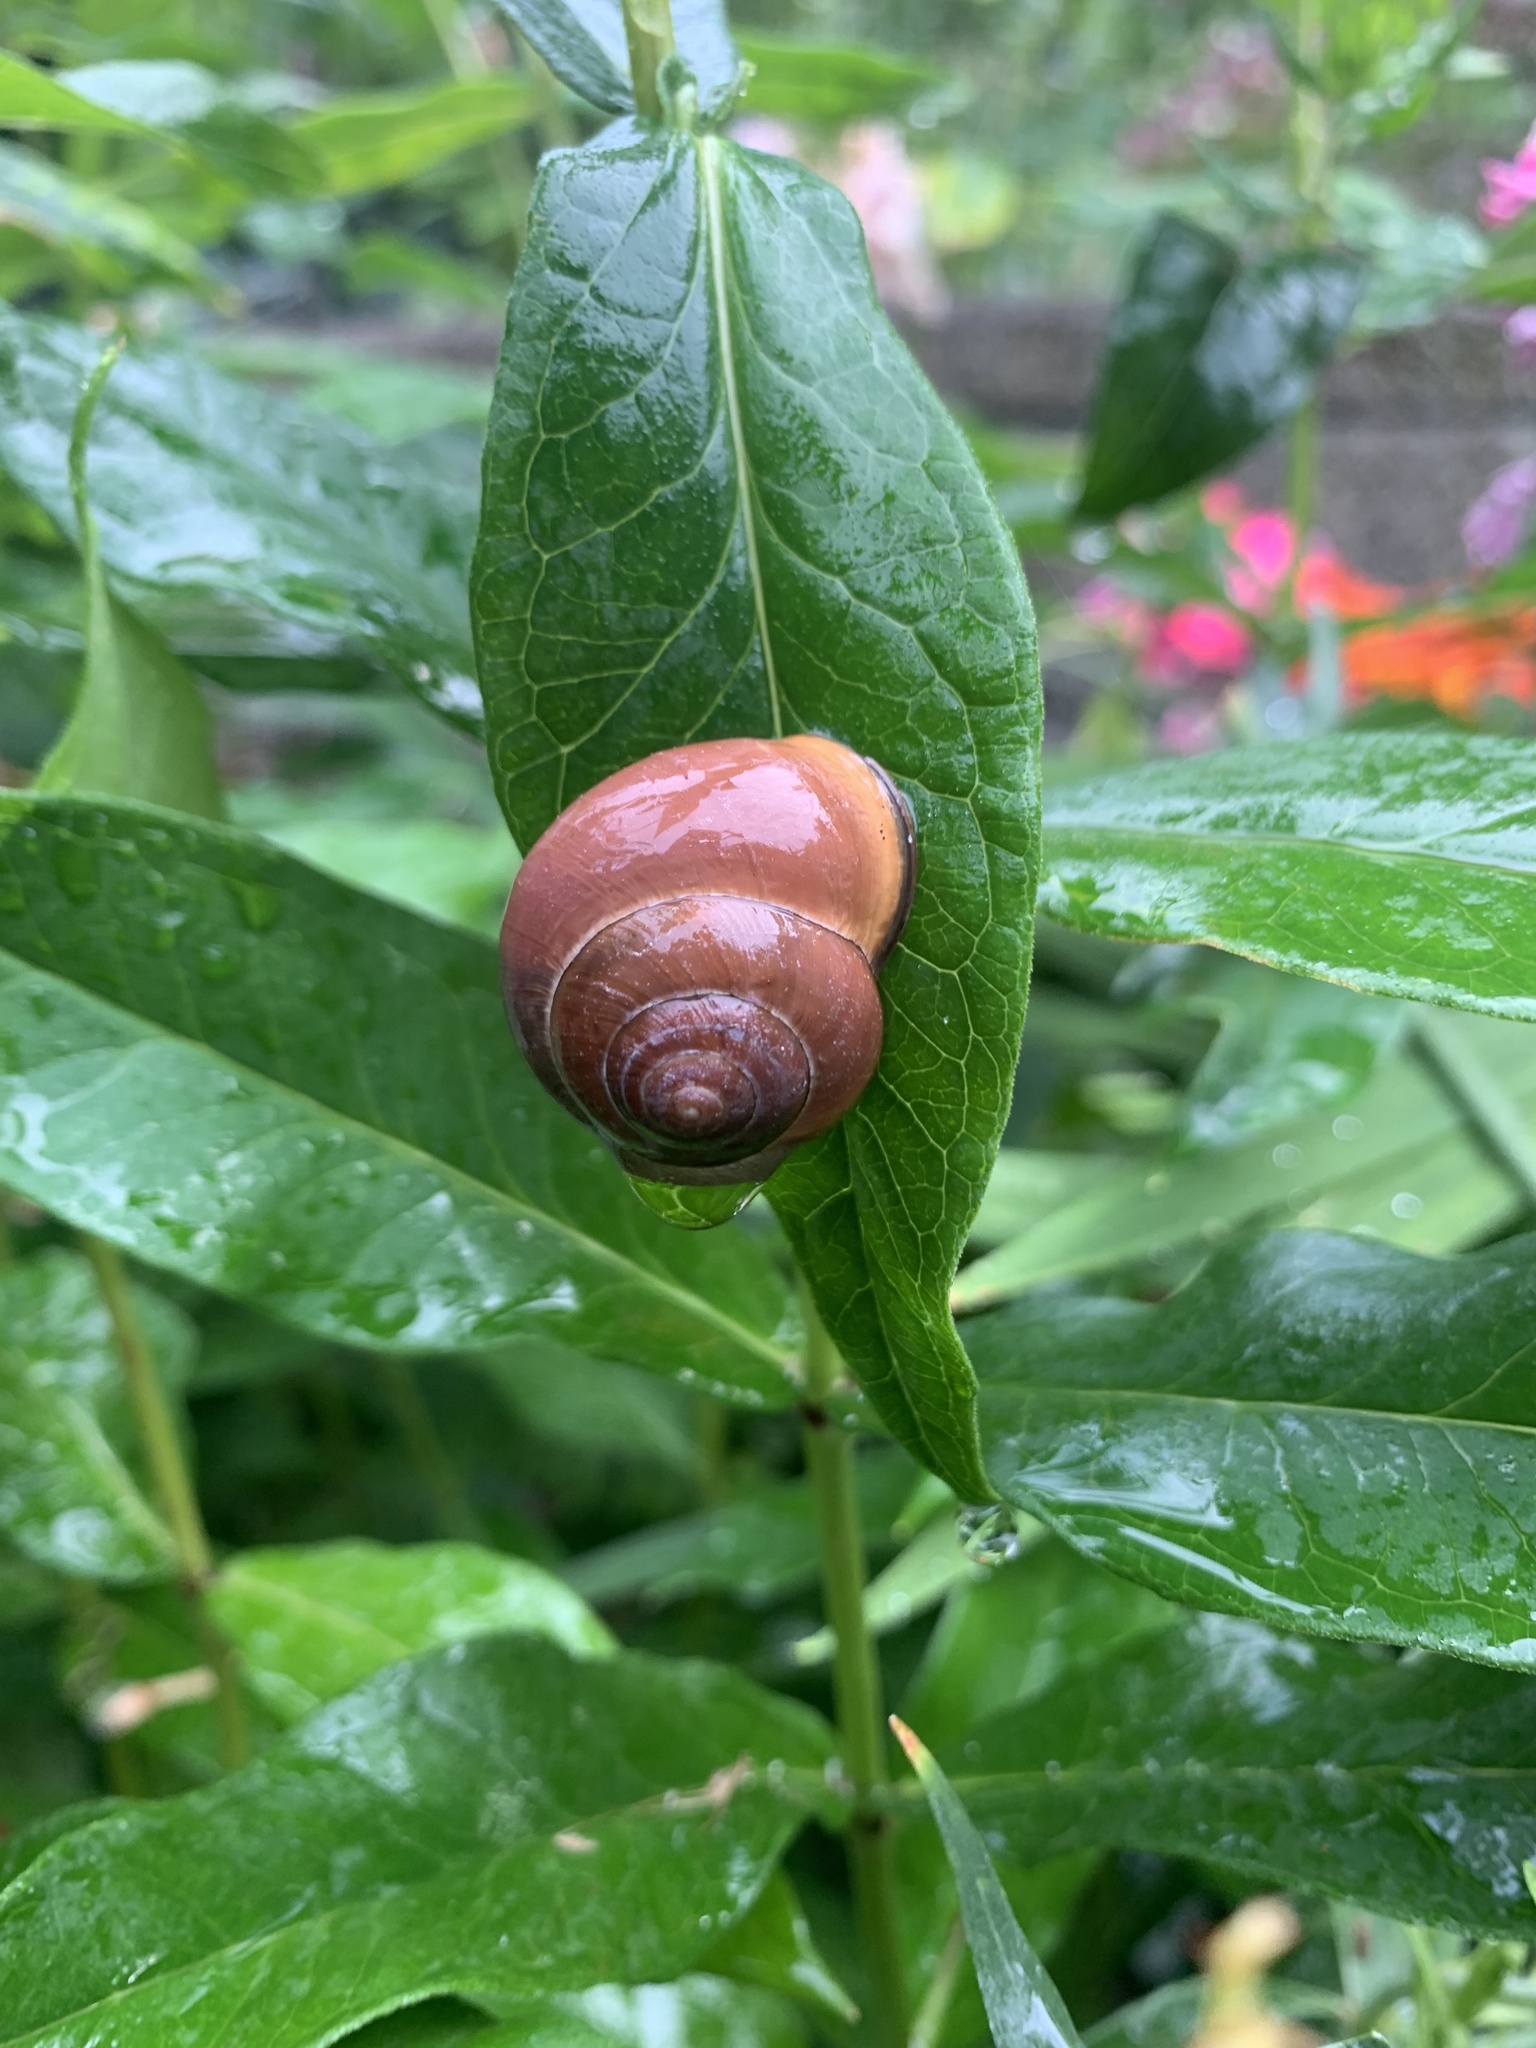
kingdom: Animalia
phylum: Mollusca
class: Gastropoda
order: Stylommatophora
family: Helicidae
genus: Cepaea
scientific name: Cepaea nemoralis
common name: Grovesnail
